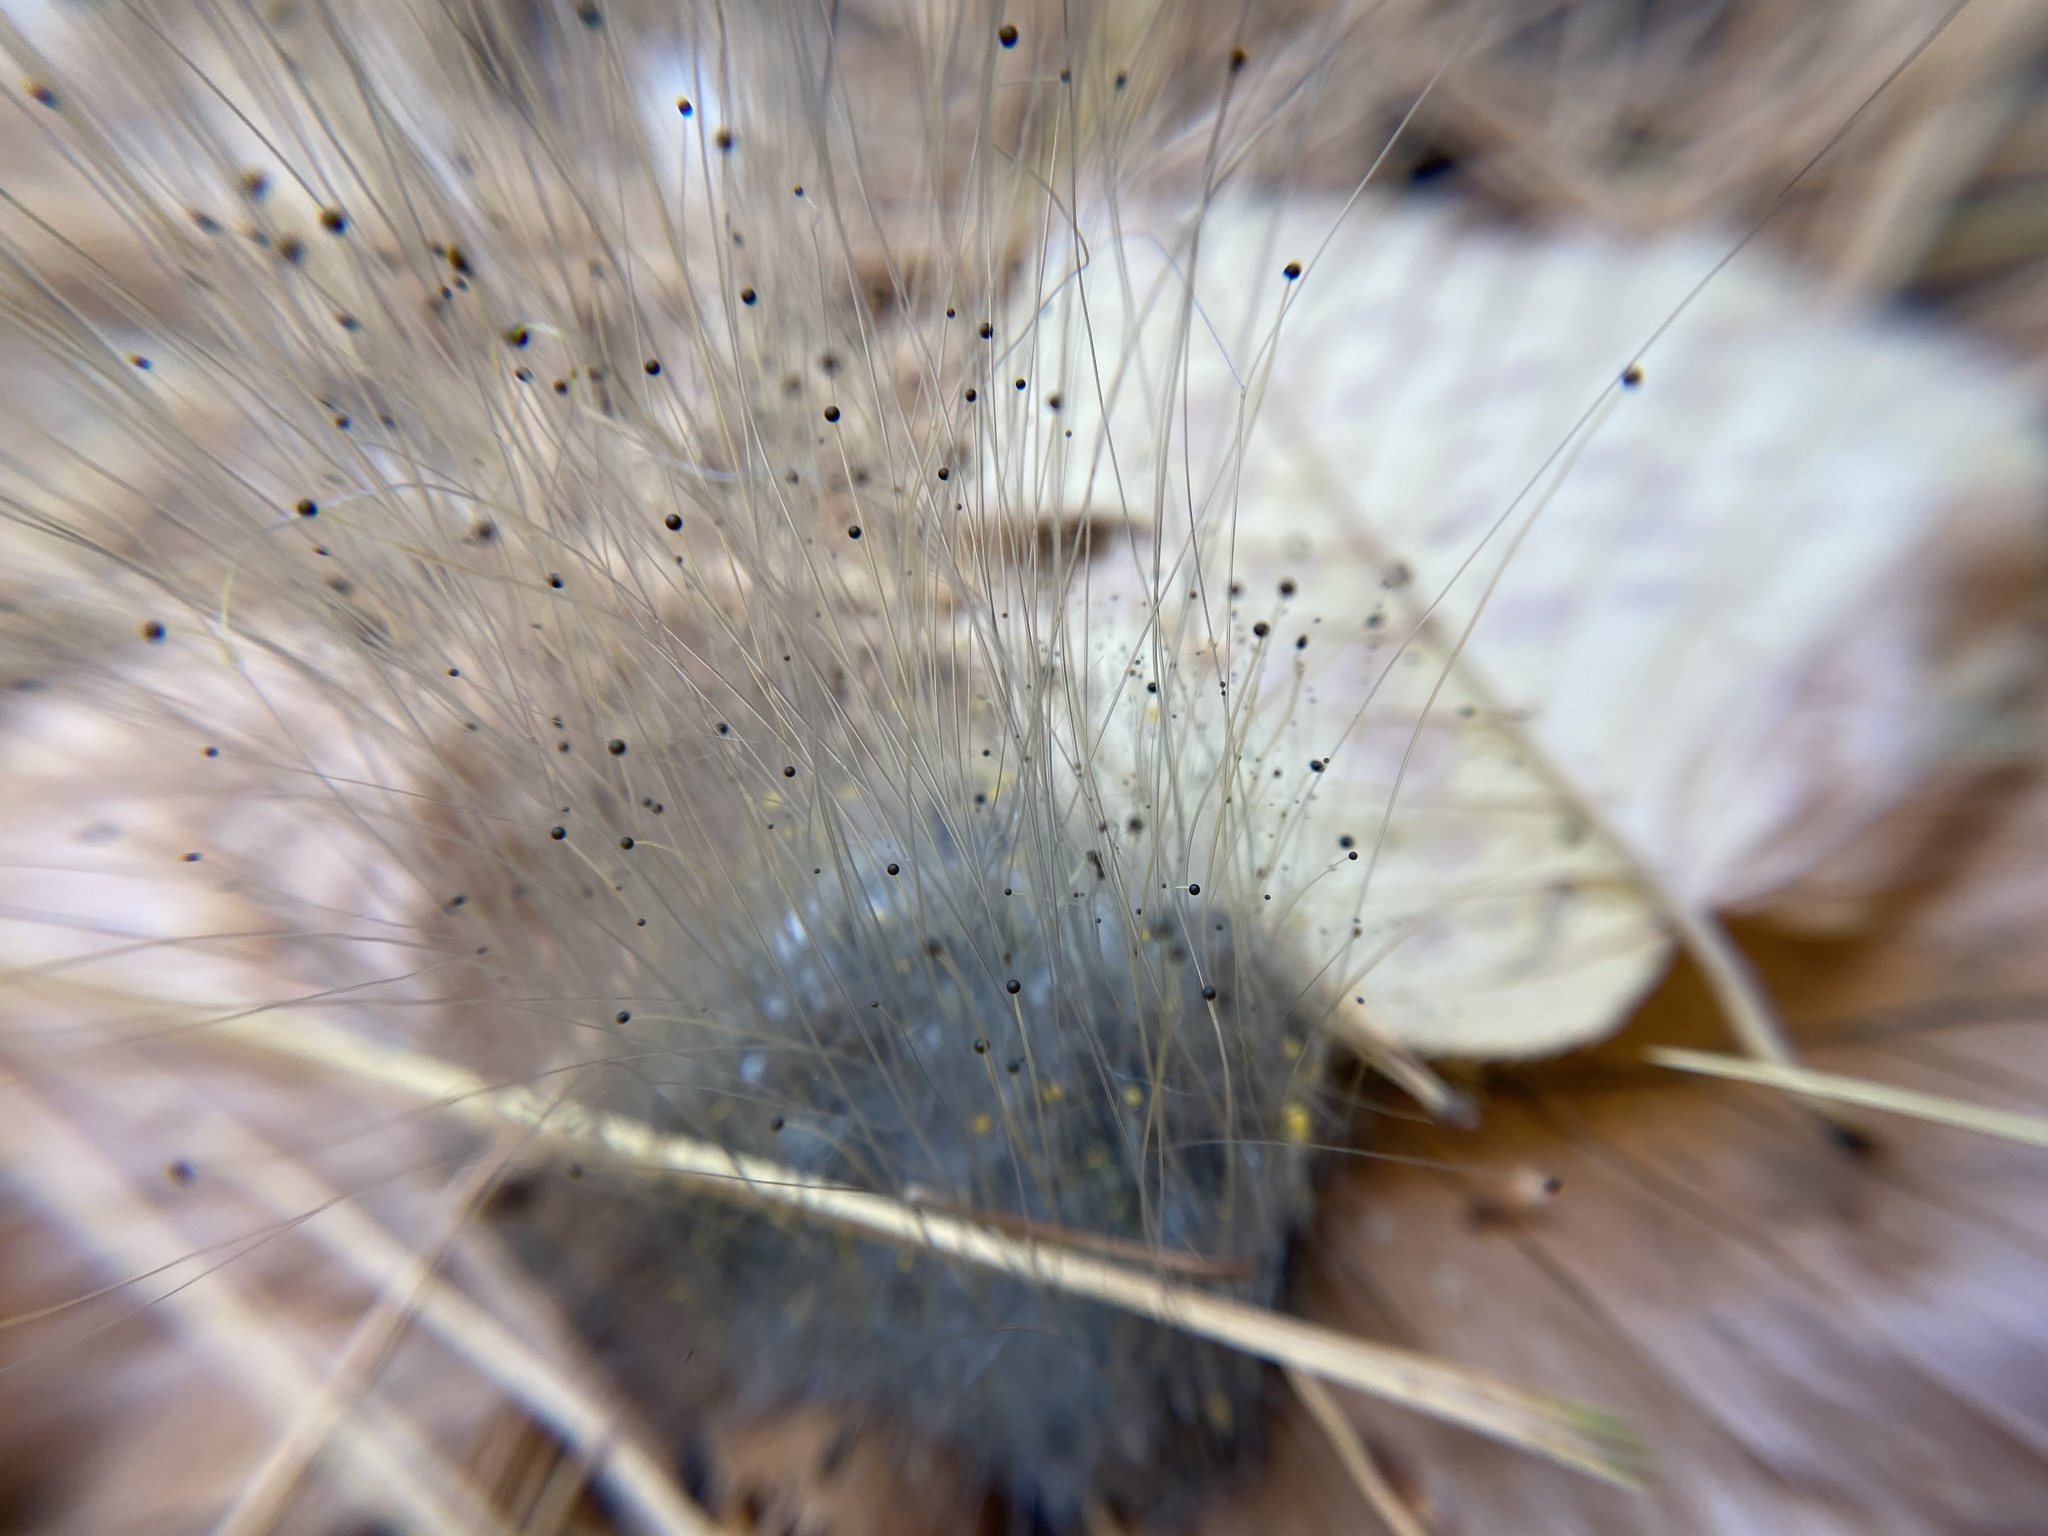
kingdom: Fungi
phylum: Mucoromycota
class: Mucoromycetes
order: Mucorales
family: Phycomycetaceae
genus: Spinellus
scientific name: Spinellus fusiger
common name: Bonnet mould
